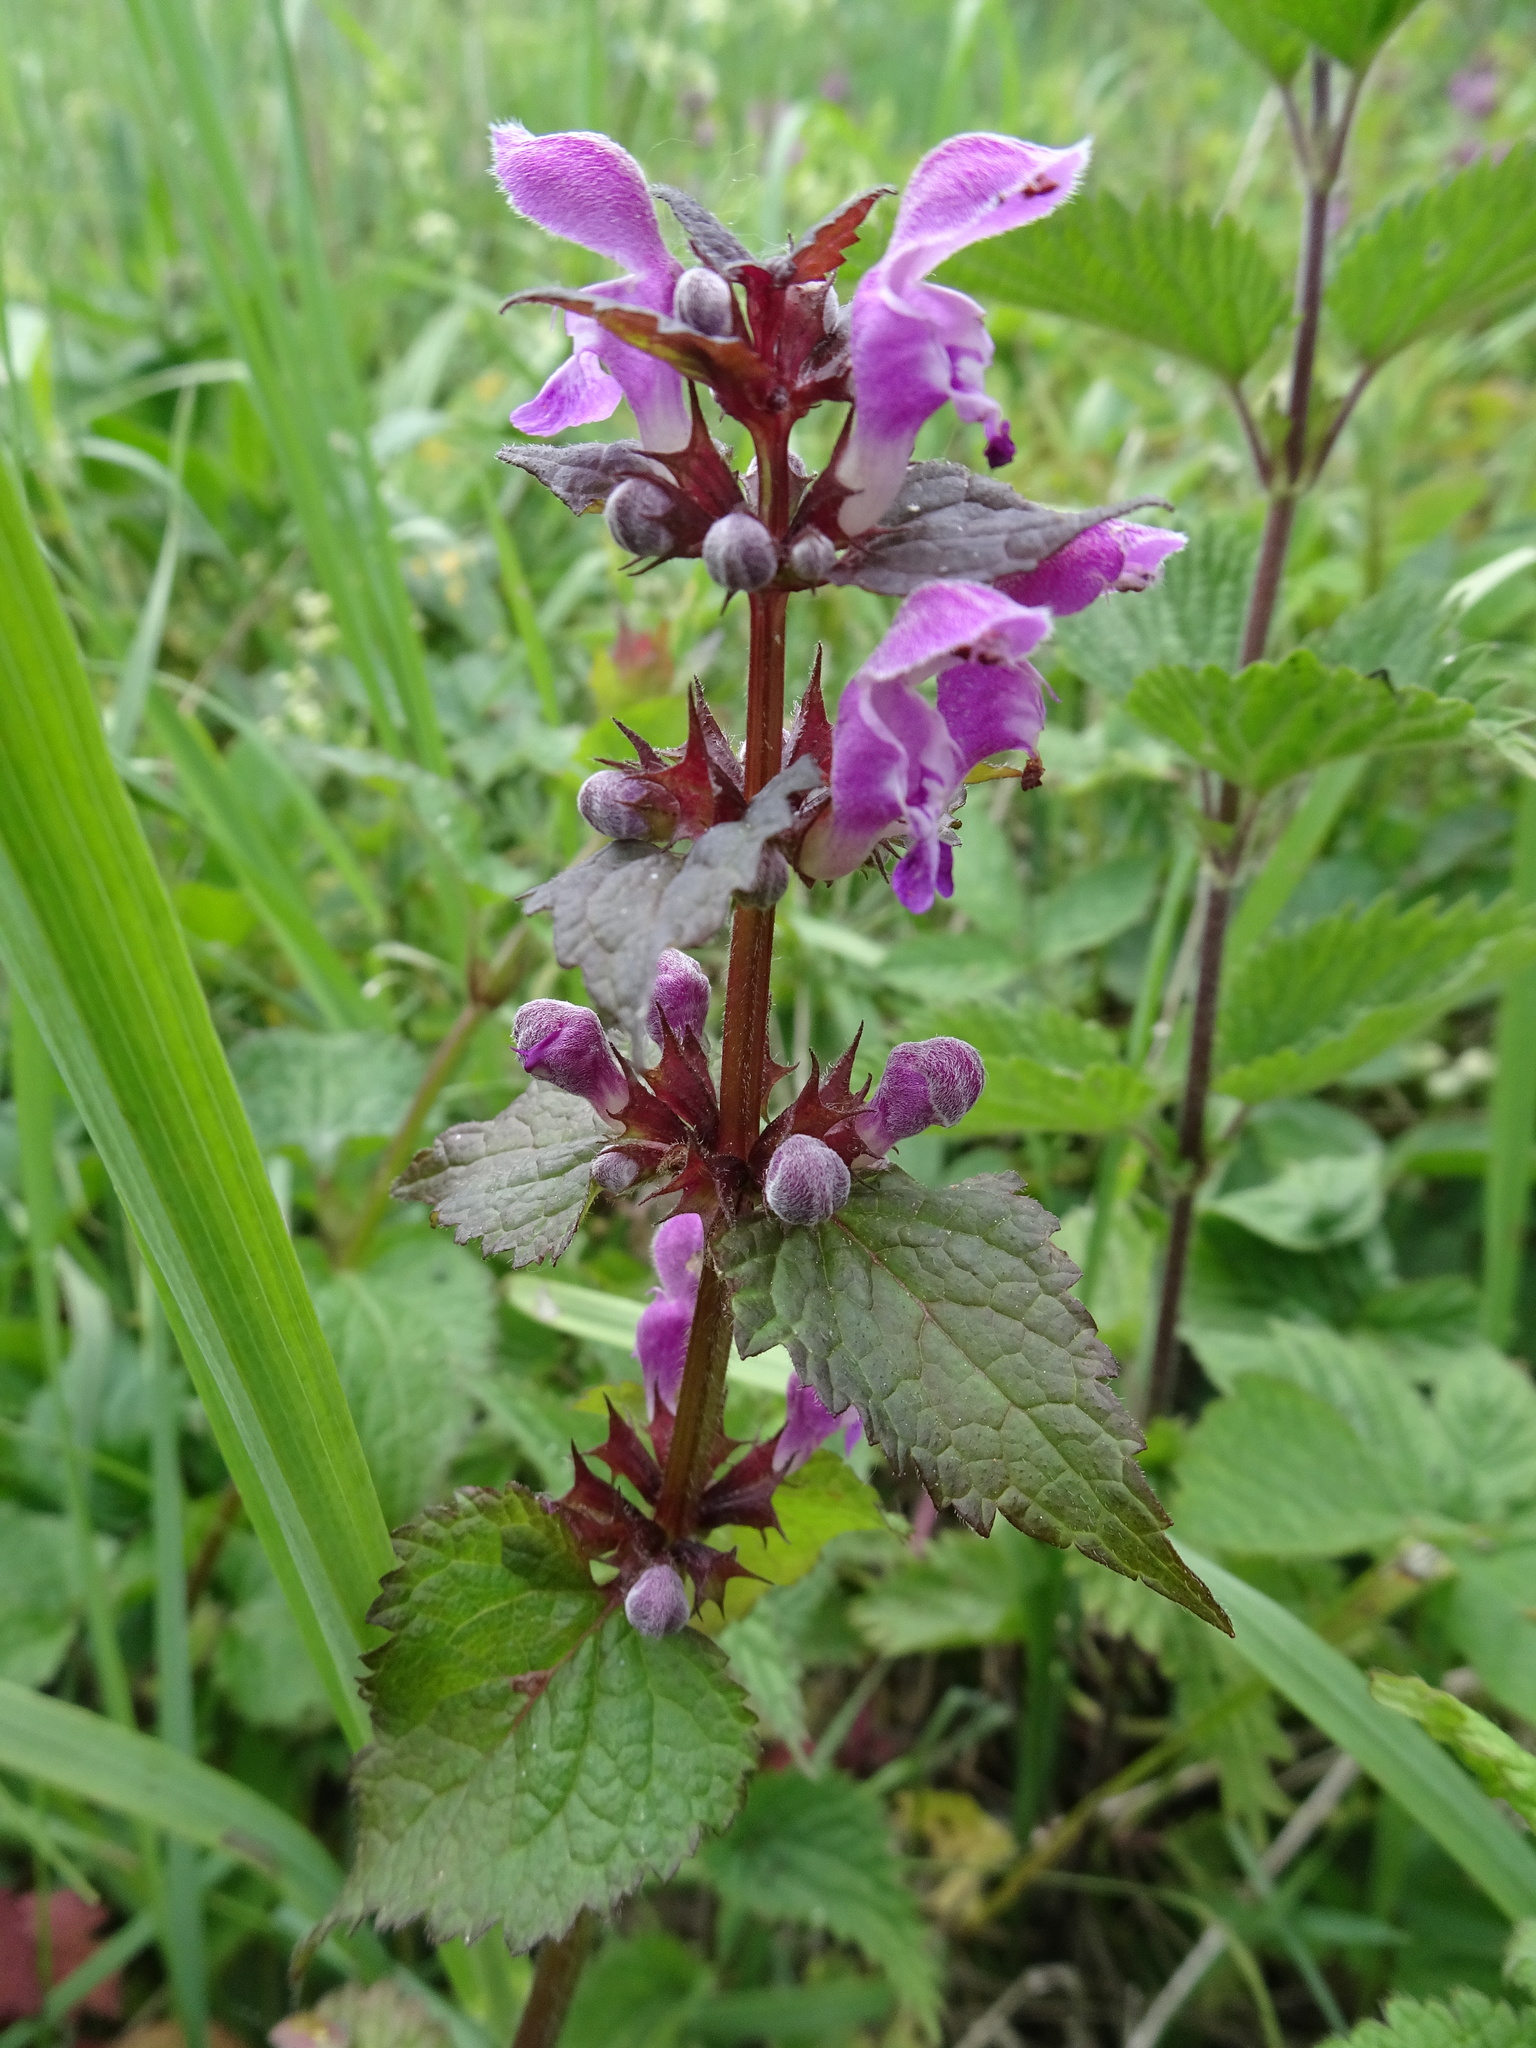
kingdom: Plantae
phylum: Tracheophyta
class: Magnoliopsida
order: Lamiales
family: Lamiaceae
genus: Lamium
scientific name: Lamium maculatum
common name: Spotted dead-nettle
